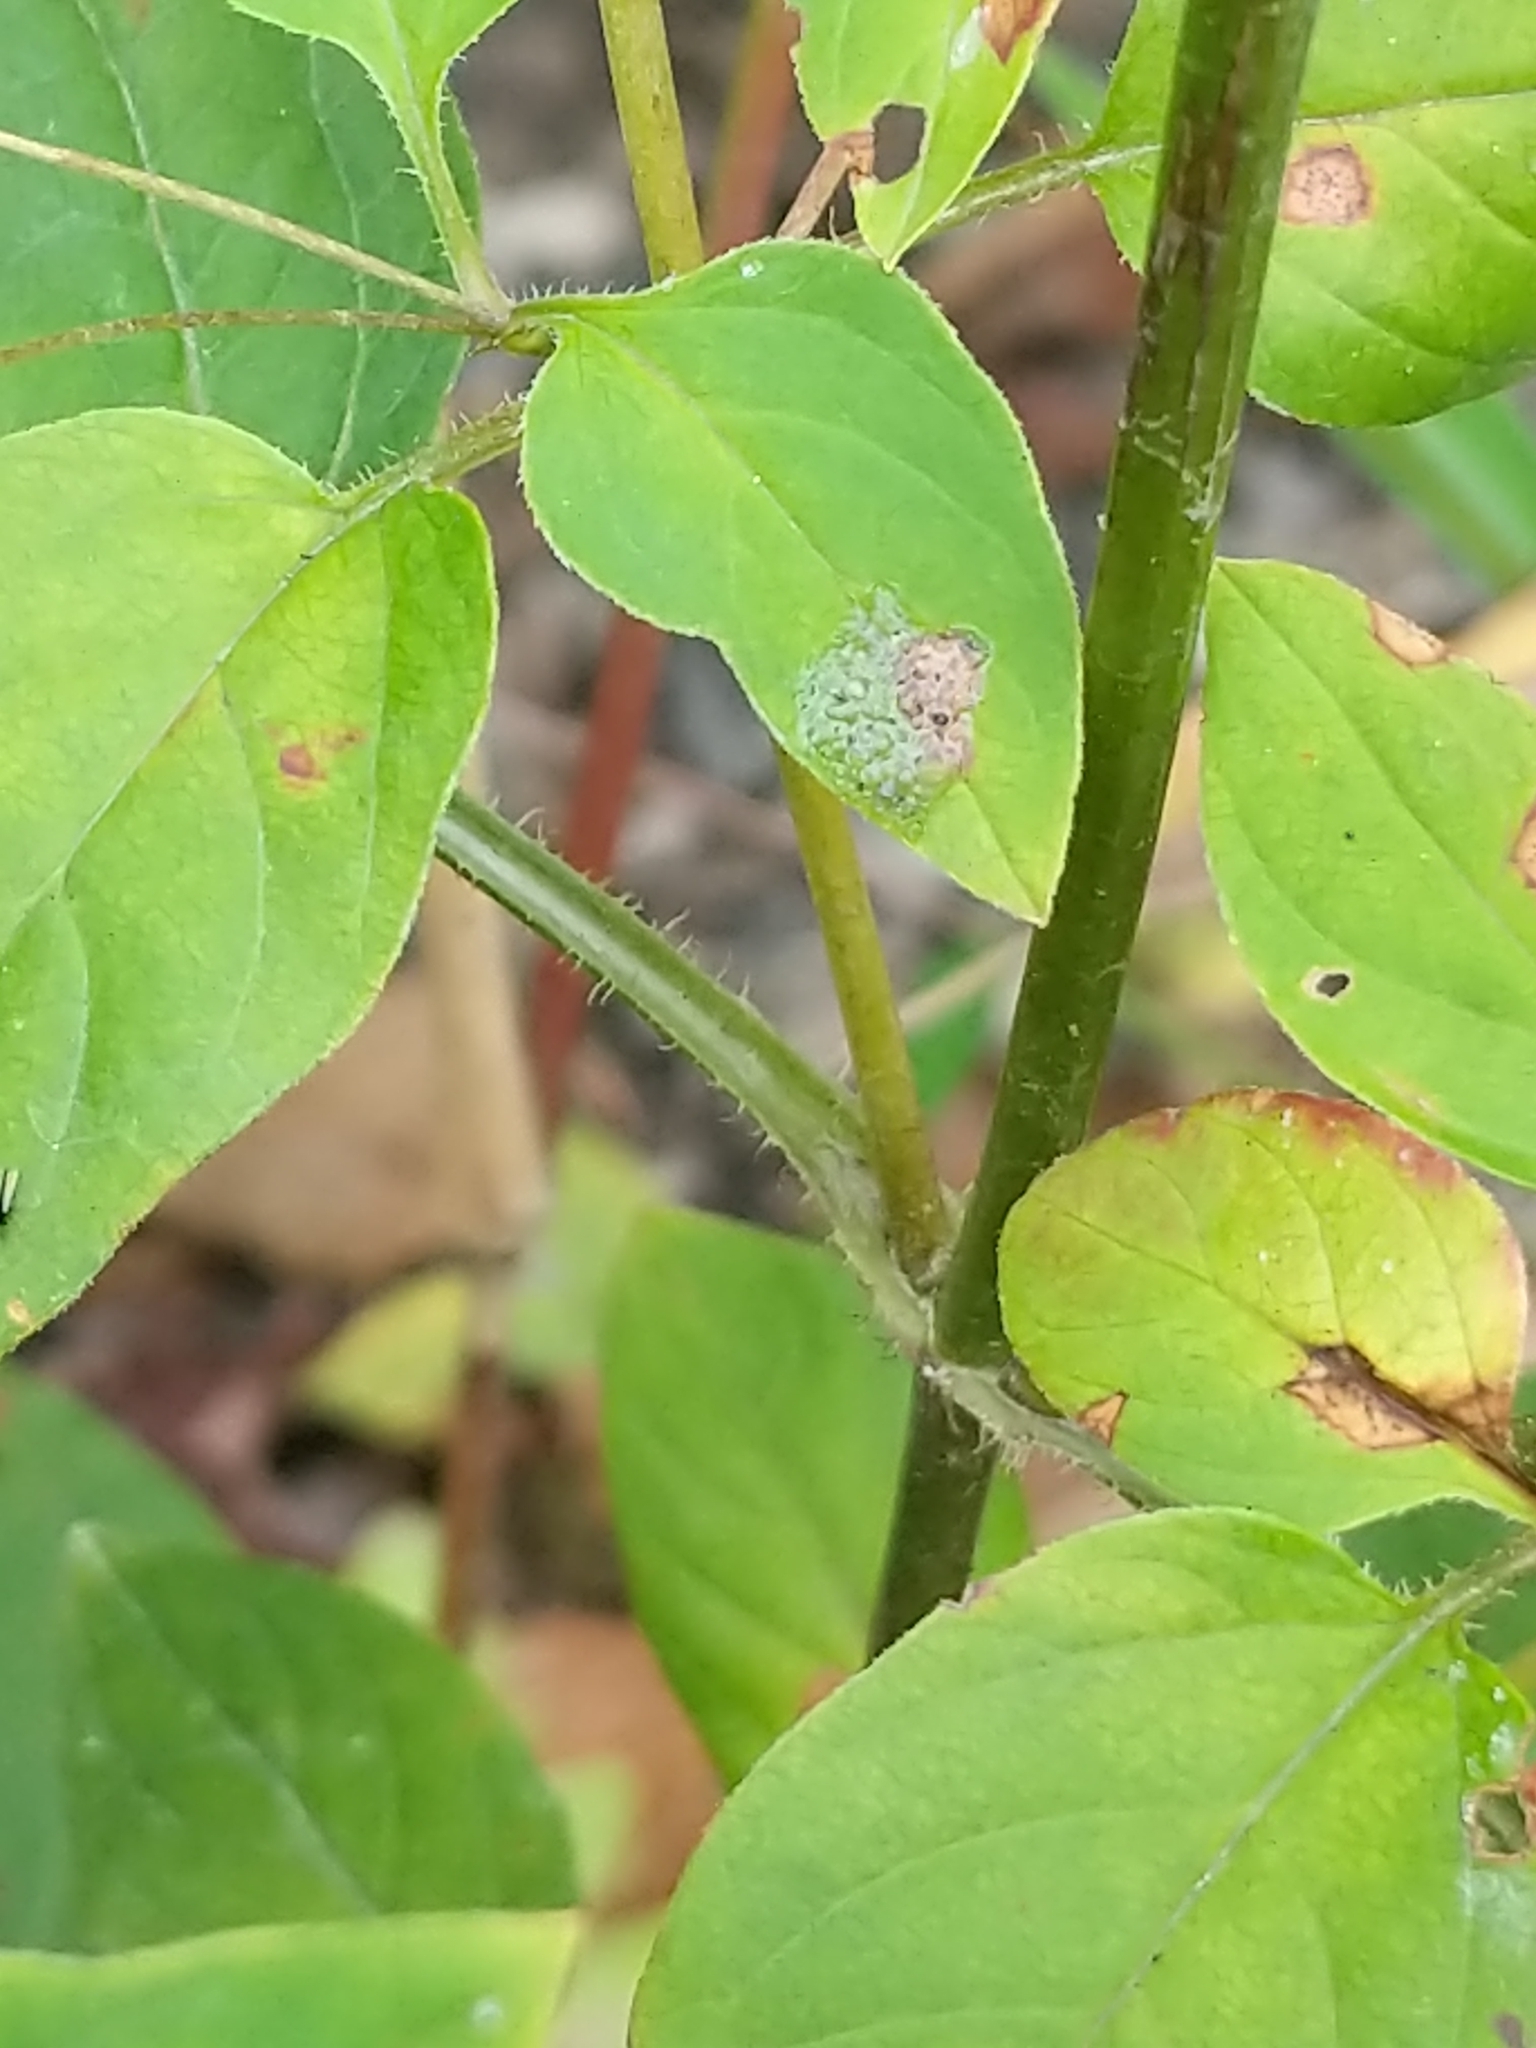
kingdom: Plantae
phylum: Tracheophyta
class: Magnoliopsida
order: Ericales
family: Primulaceae
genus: Lysimachia
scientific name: Lysimachia ciliata
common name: Fringed loosestrife
